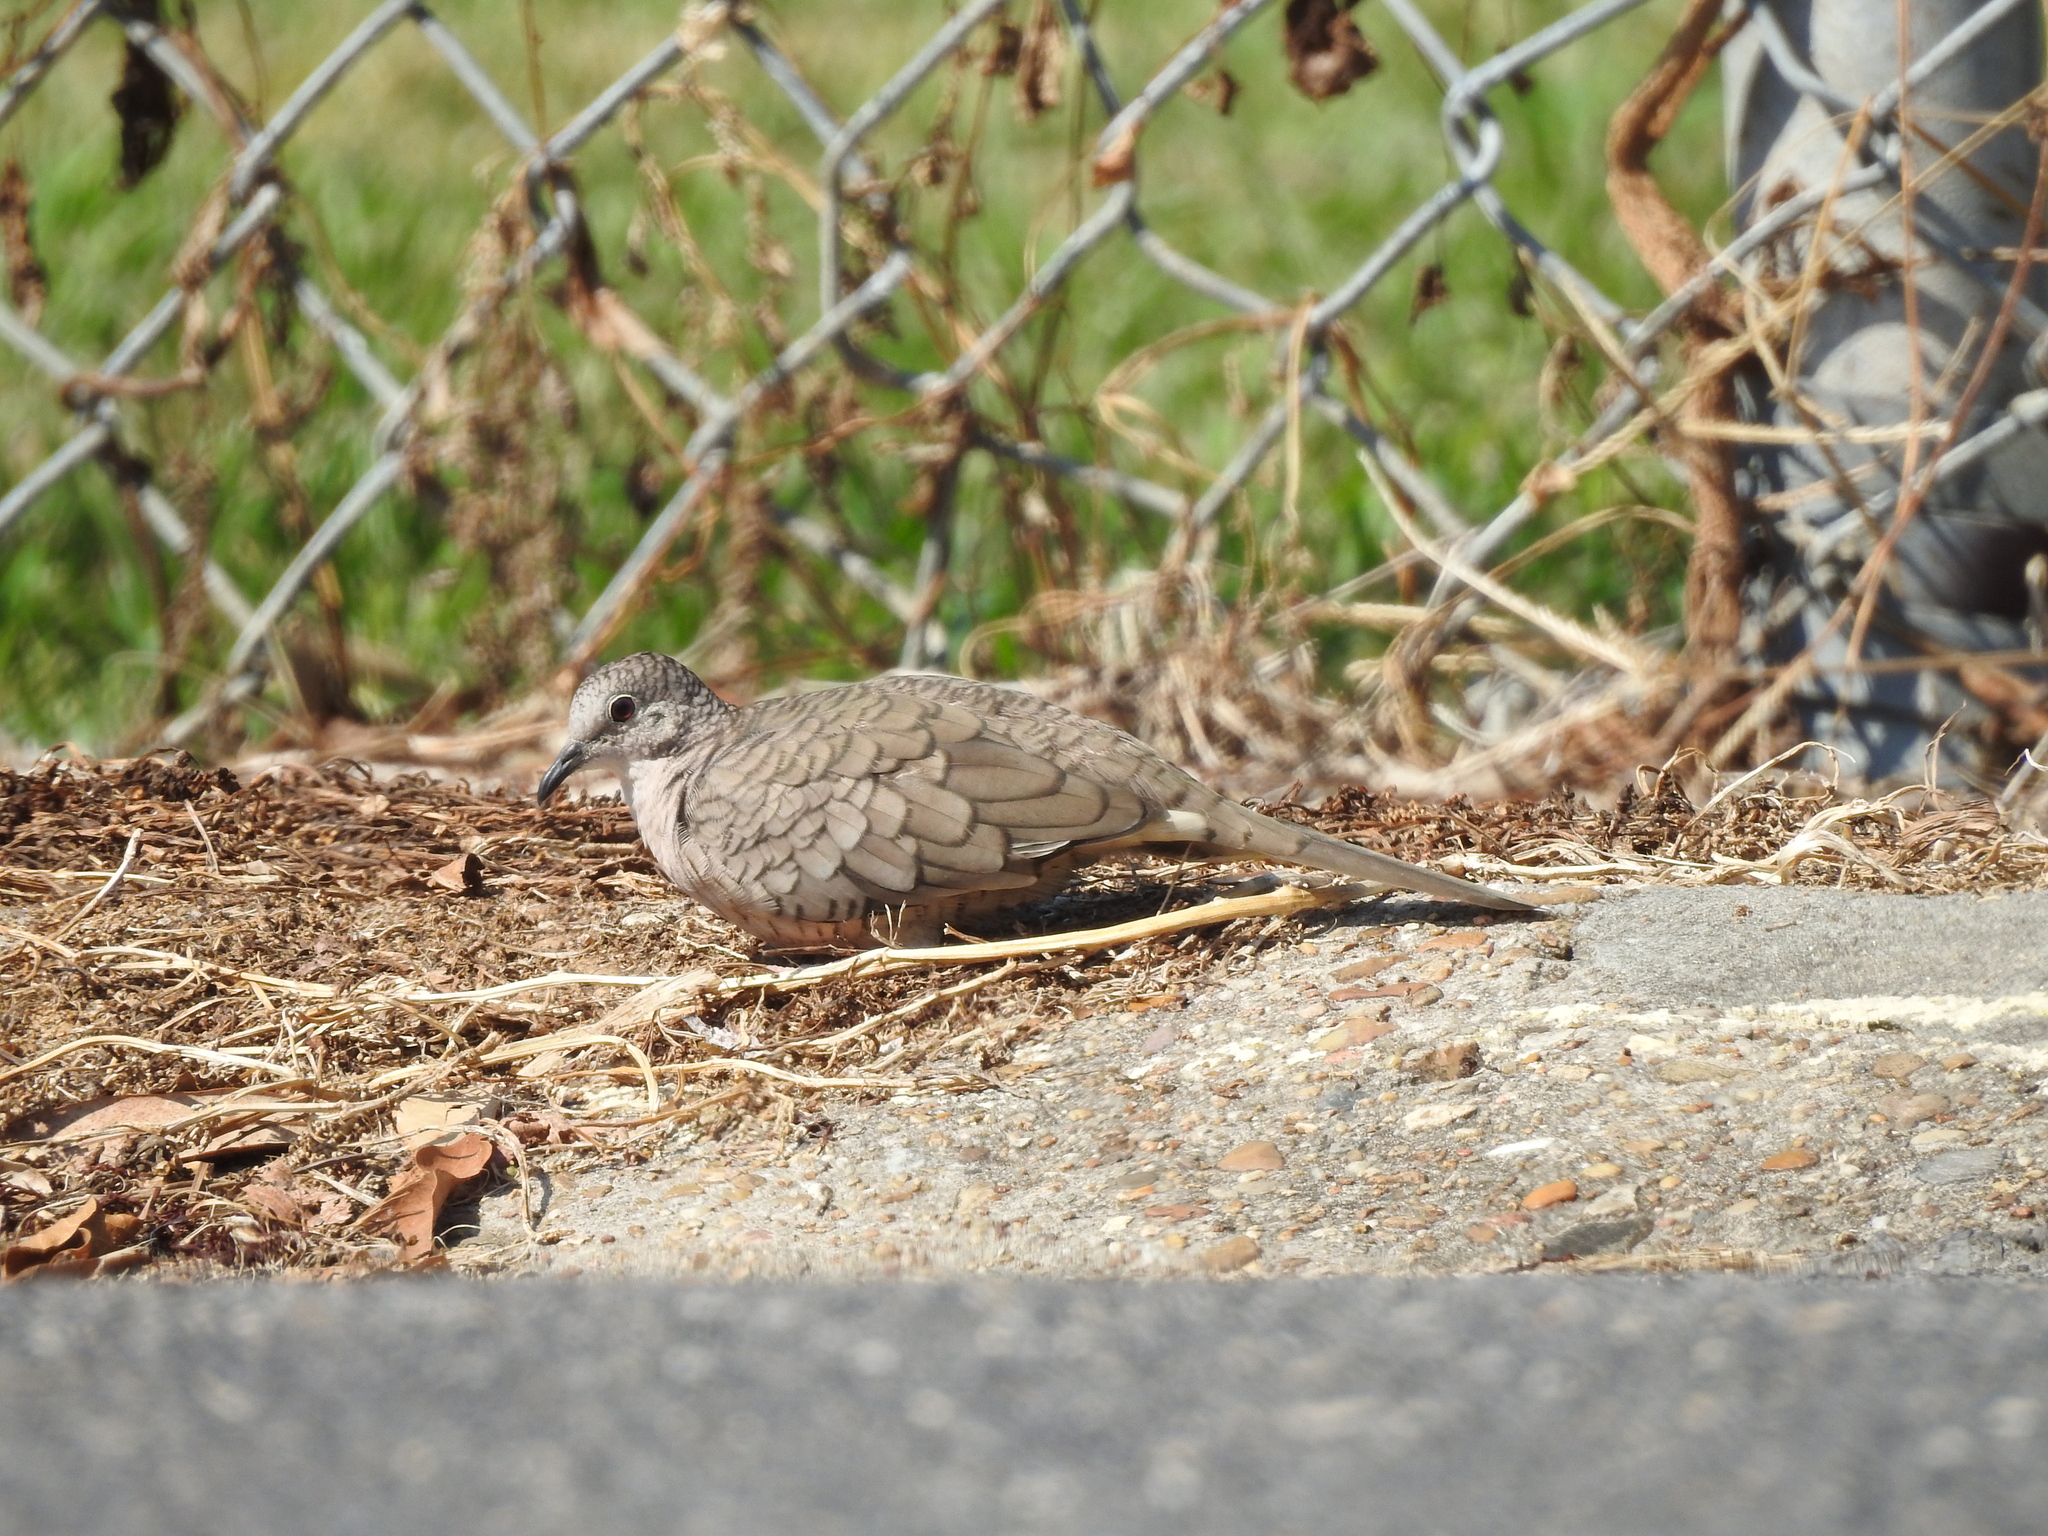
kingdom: Animalia
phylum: Chordata
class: Aves
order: Columbiformes
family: Columbidae
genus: Columbina
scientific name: Columbina inca
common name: Inca dove
